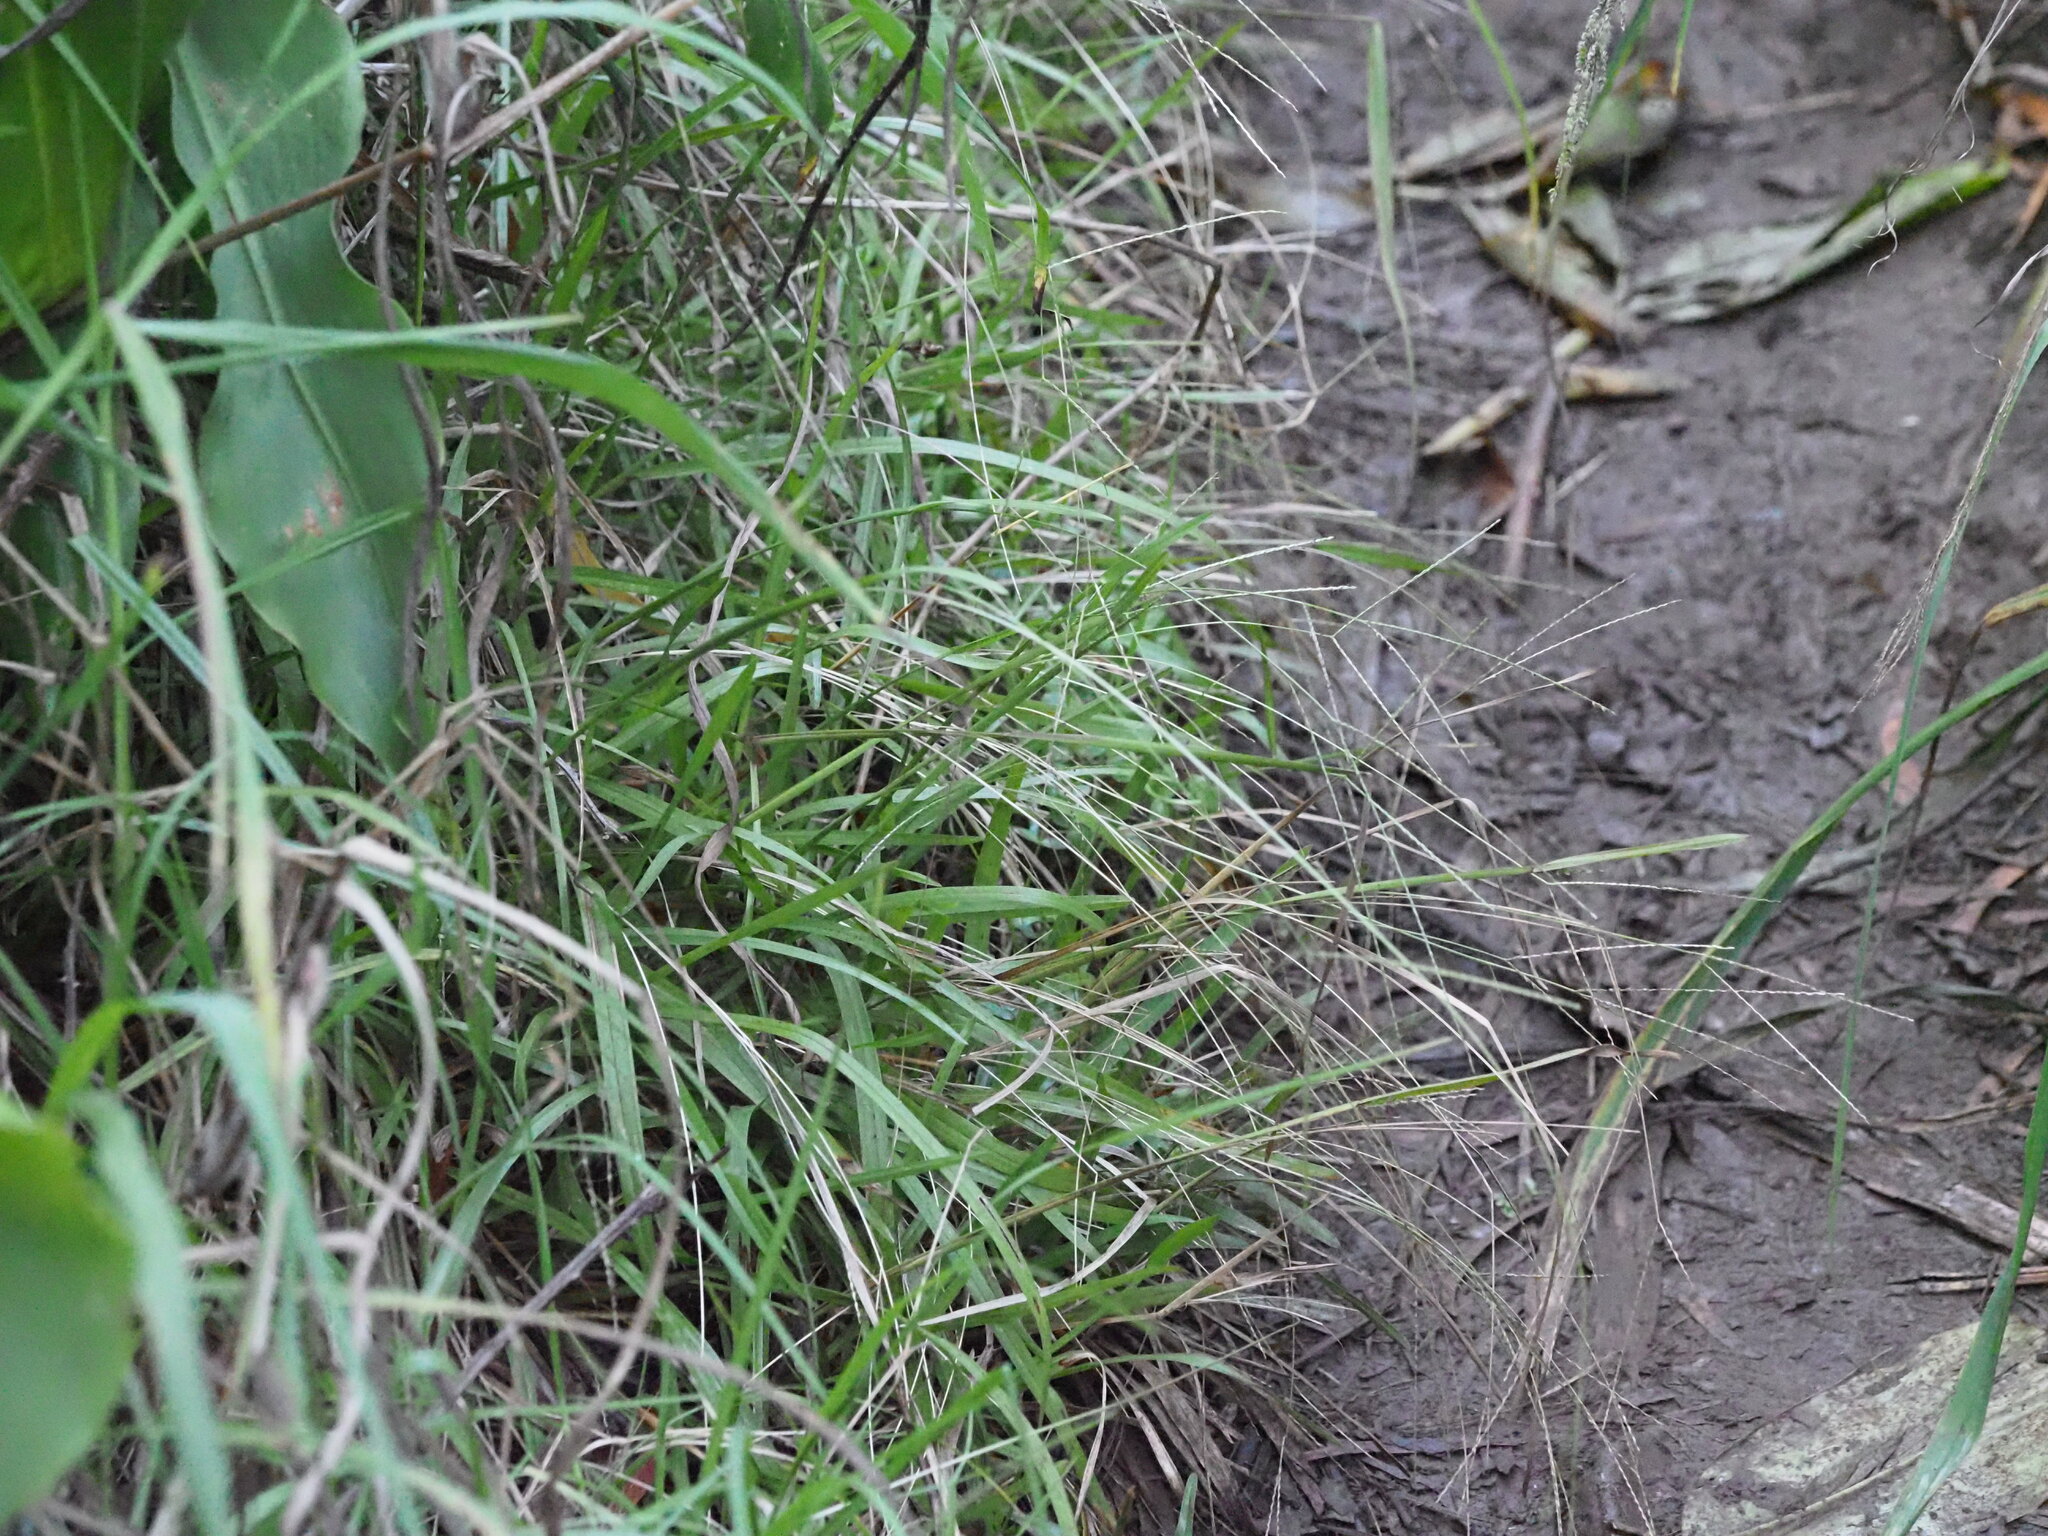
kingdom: Plantae
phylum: Tracheophyta
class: Liliopsida
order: Poales
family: Poaceae
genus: Axonopus
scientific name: Axonopus fissifolius
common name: Common carpetgrass
